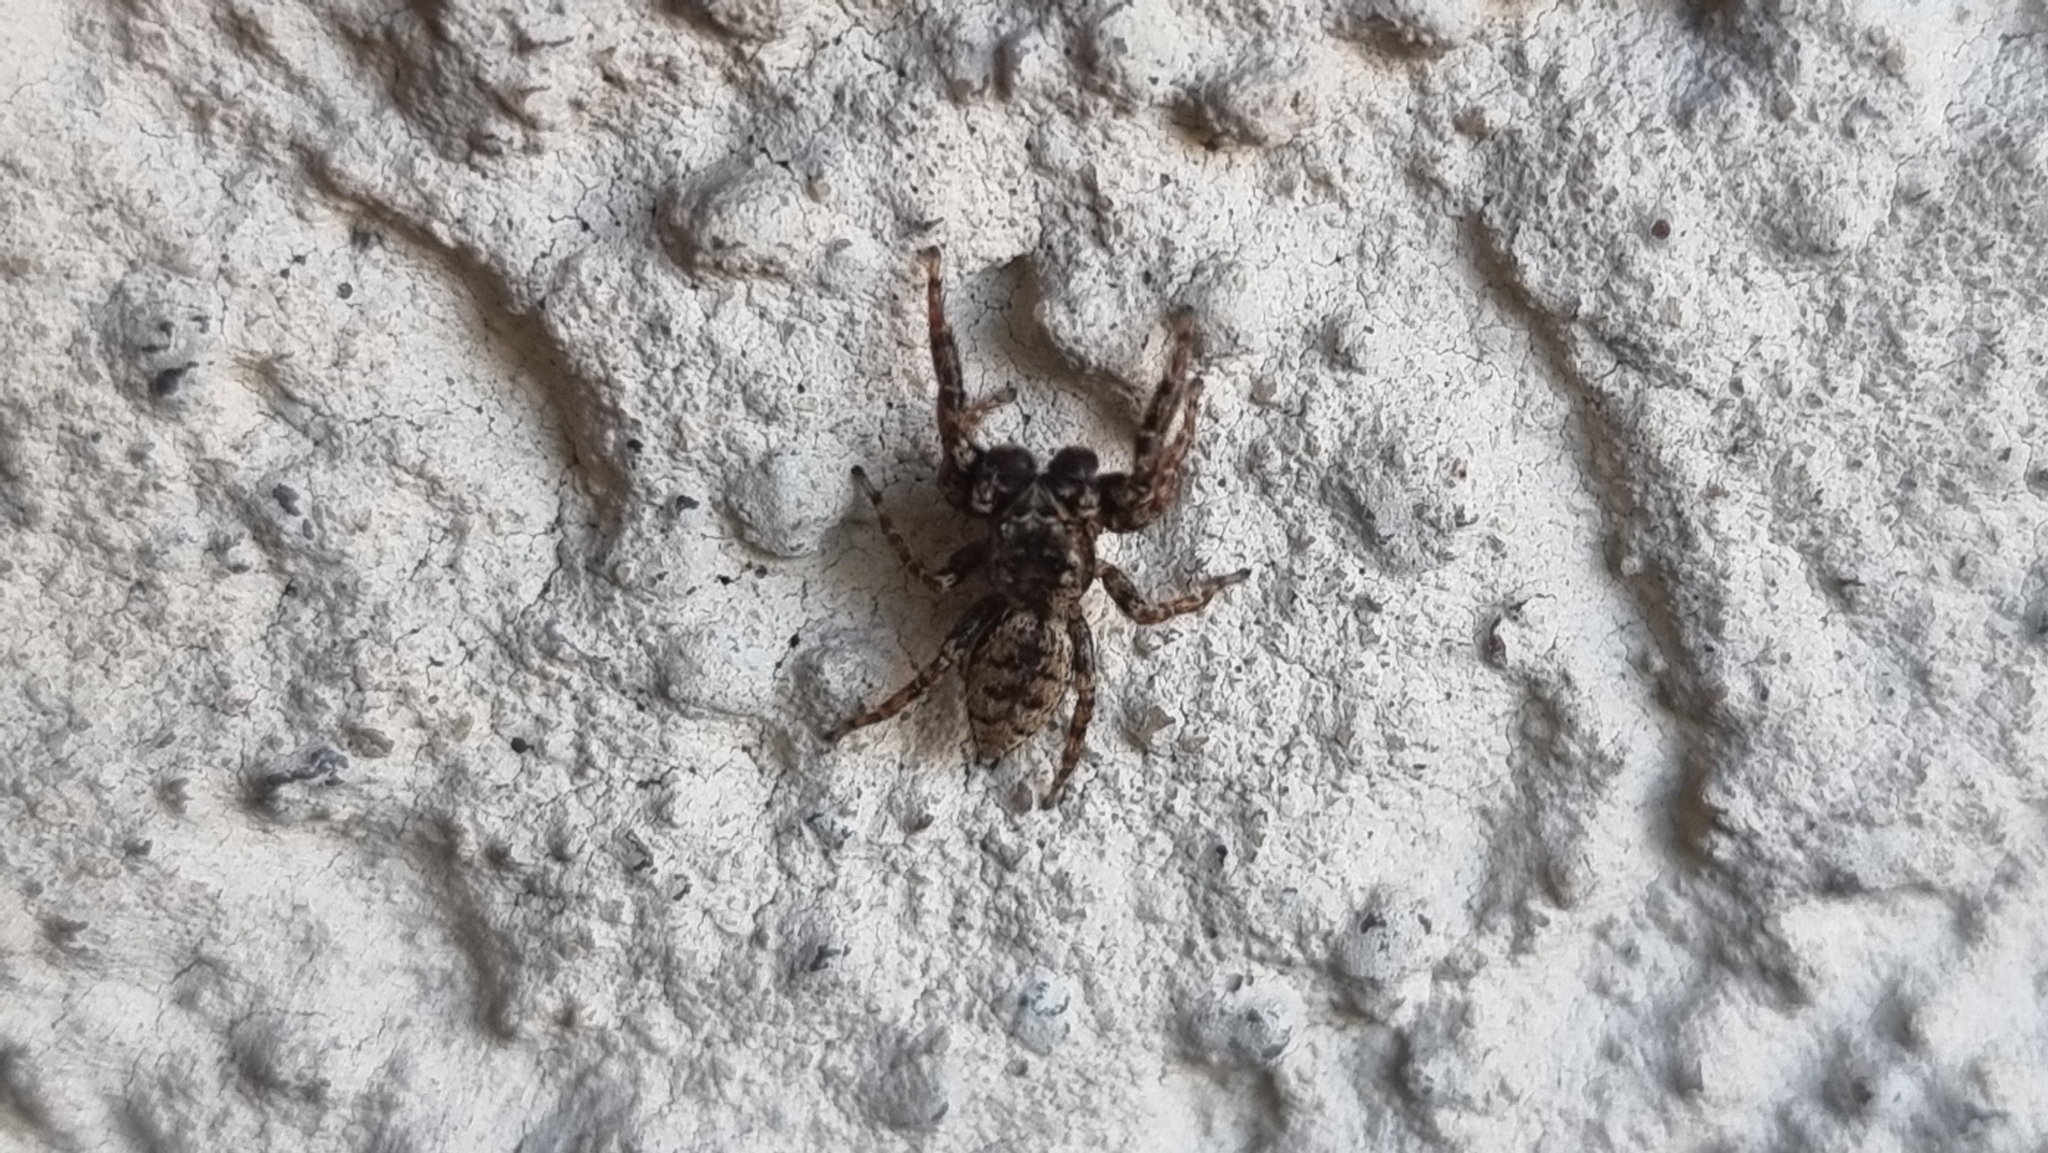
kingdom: Animalia
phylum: Arthropoda
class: Arachnida
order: Araneae
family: Salticidae
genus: Marpissa
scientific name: Marpissa muscosa
